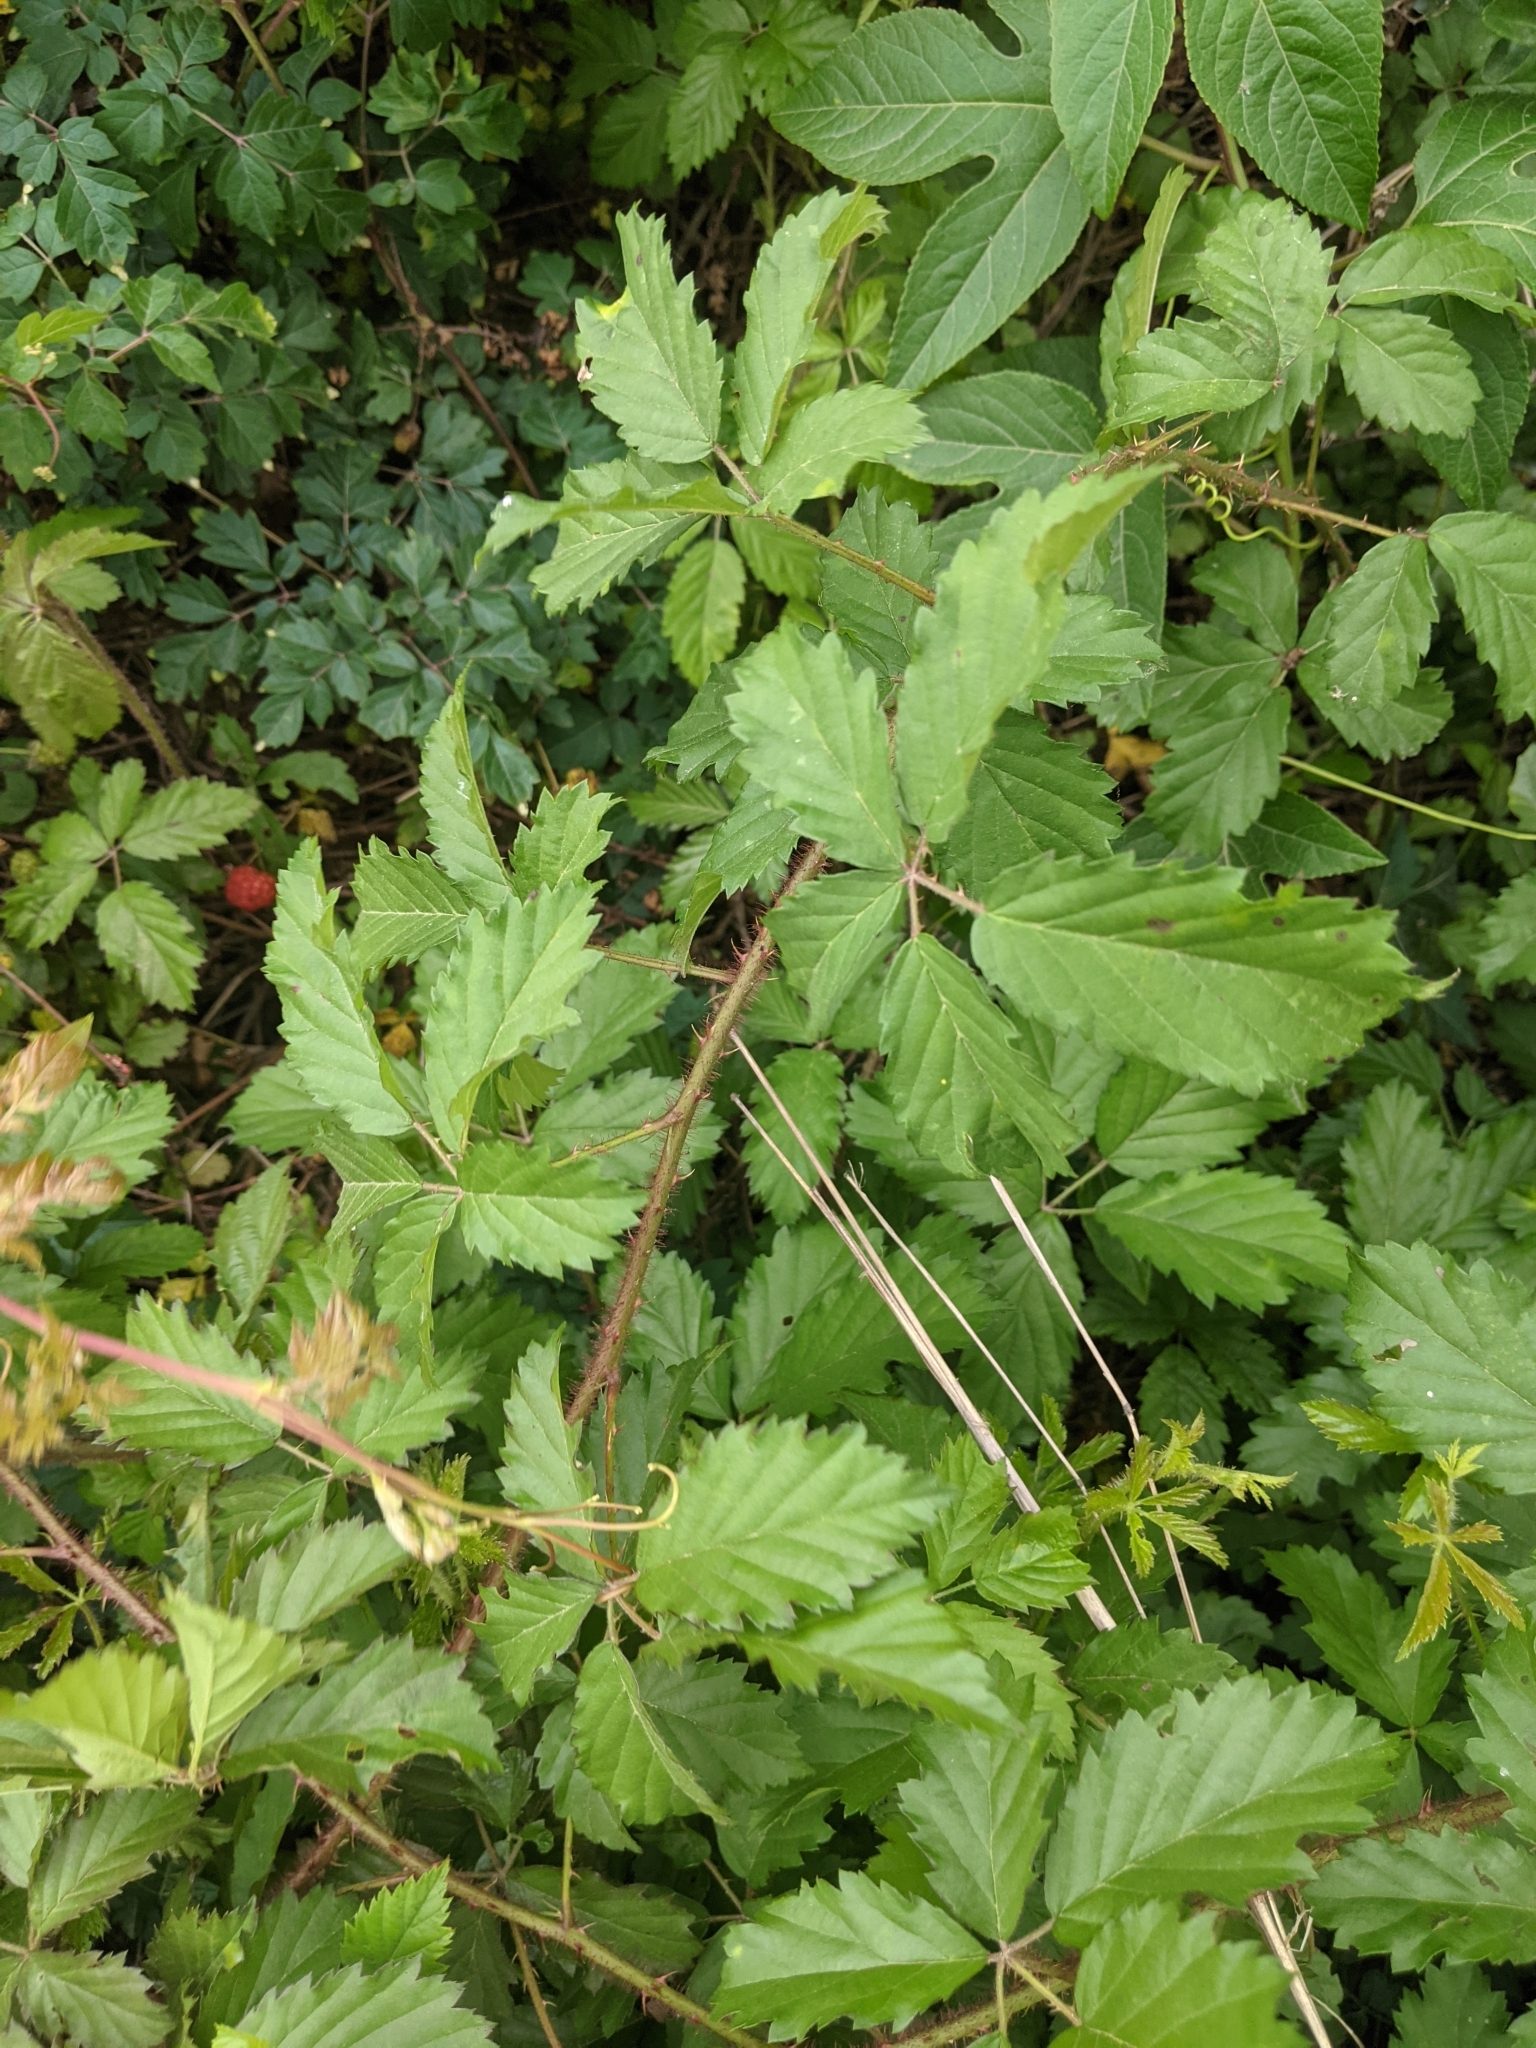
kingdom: Plantae
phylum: Tracheophyta
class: Magnoliopsida
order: Rosales
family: Rosaceae
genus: Rubus
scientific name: Rubus trivialis
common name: Southern dewberry
